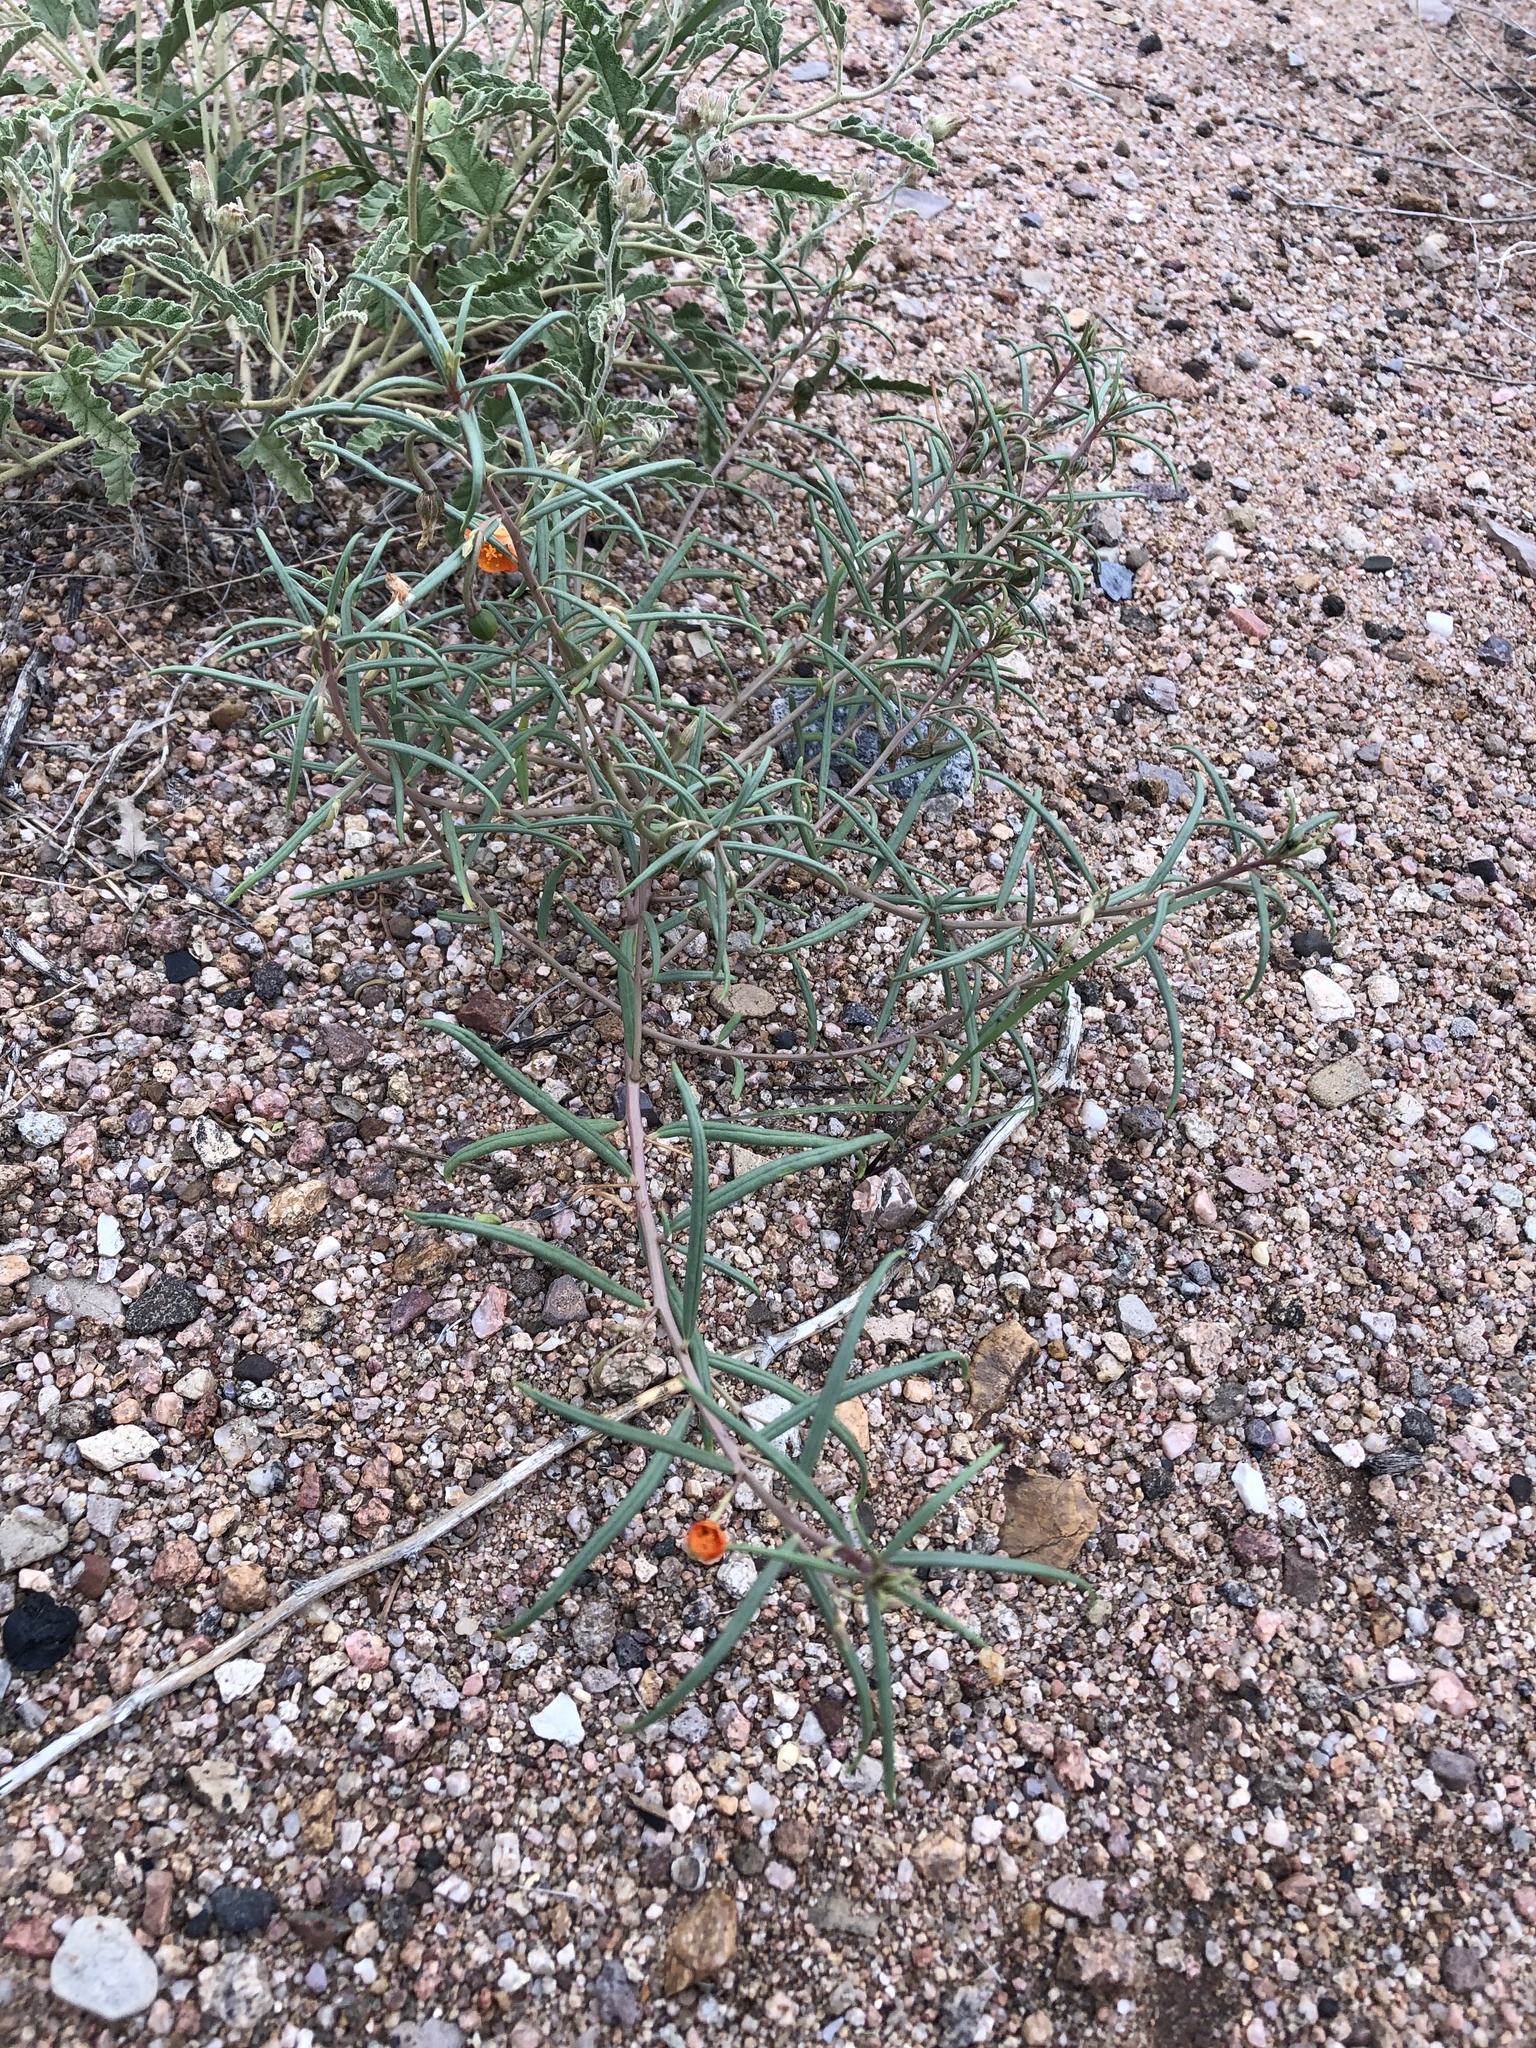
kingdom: Plantae
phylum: Tracheophyta
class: Magnoliopsida
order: Caryophyllales
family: Montiaceae
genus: Phemeranthus
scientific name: Phemeranthus aurantiacus
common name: Orange fameflower
